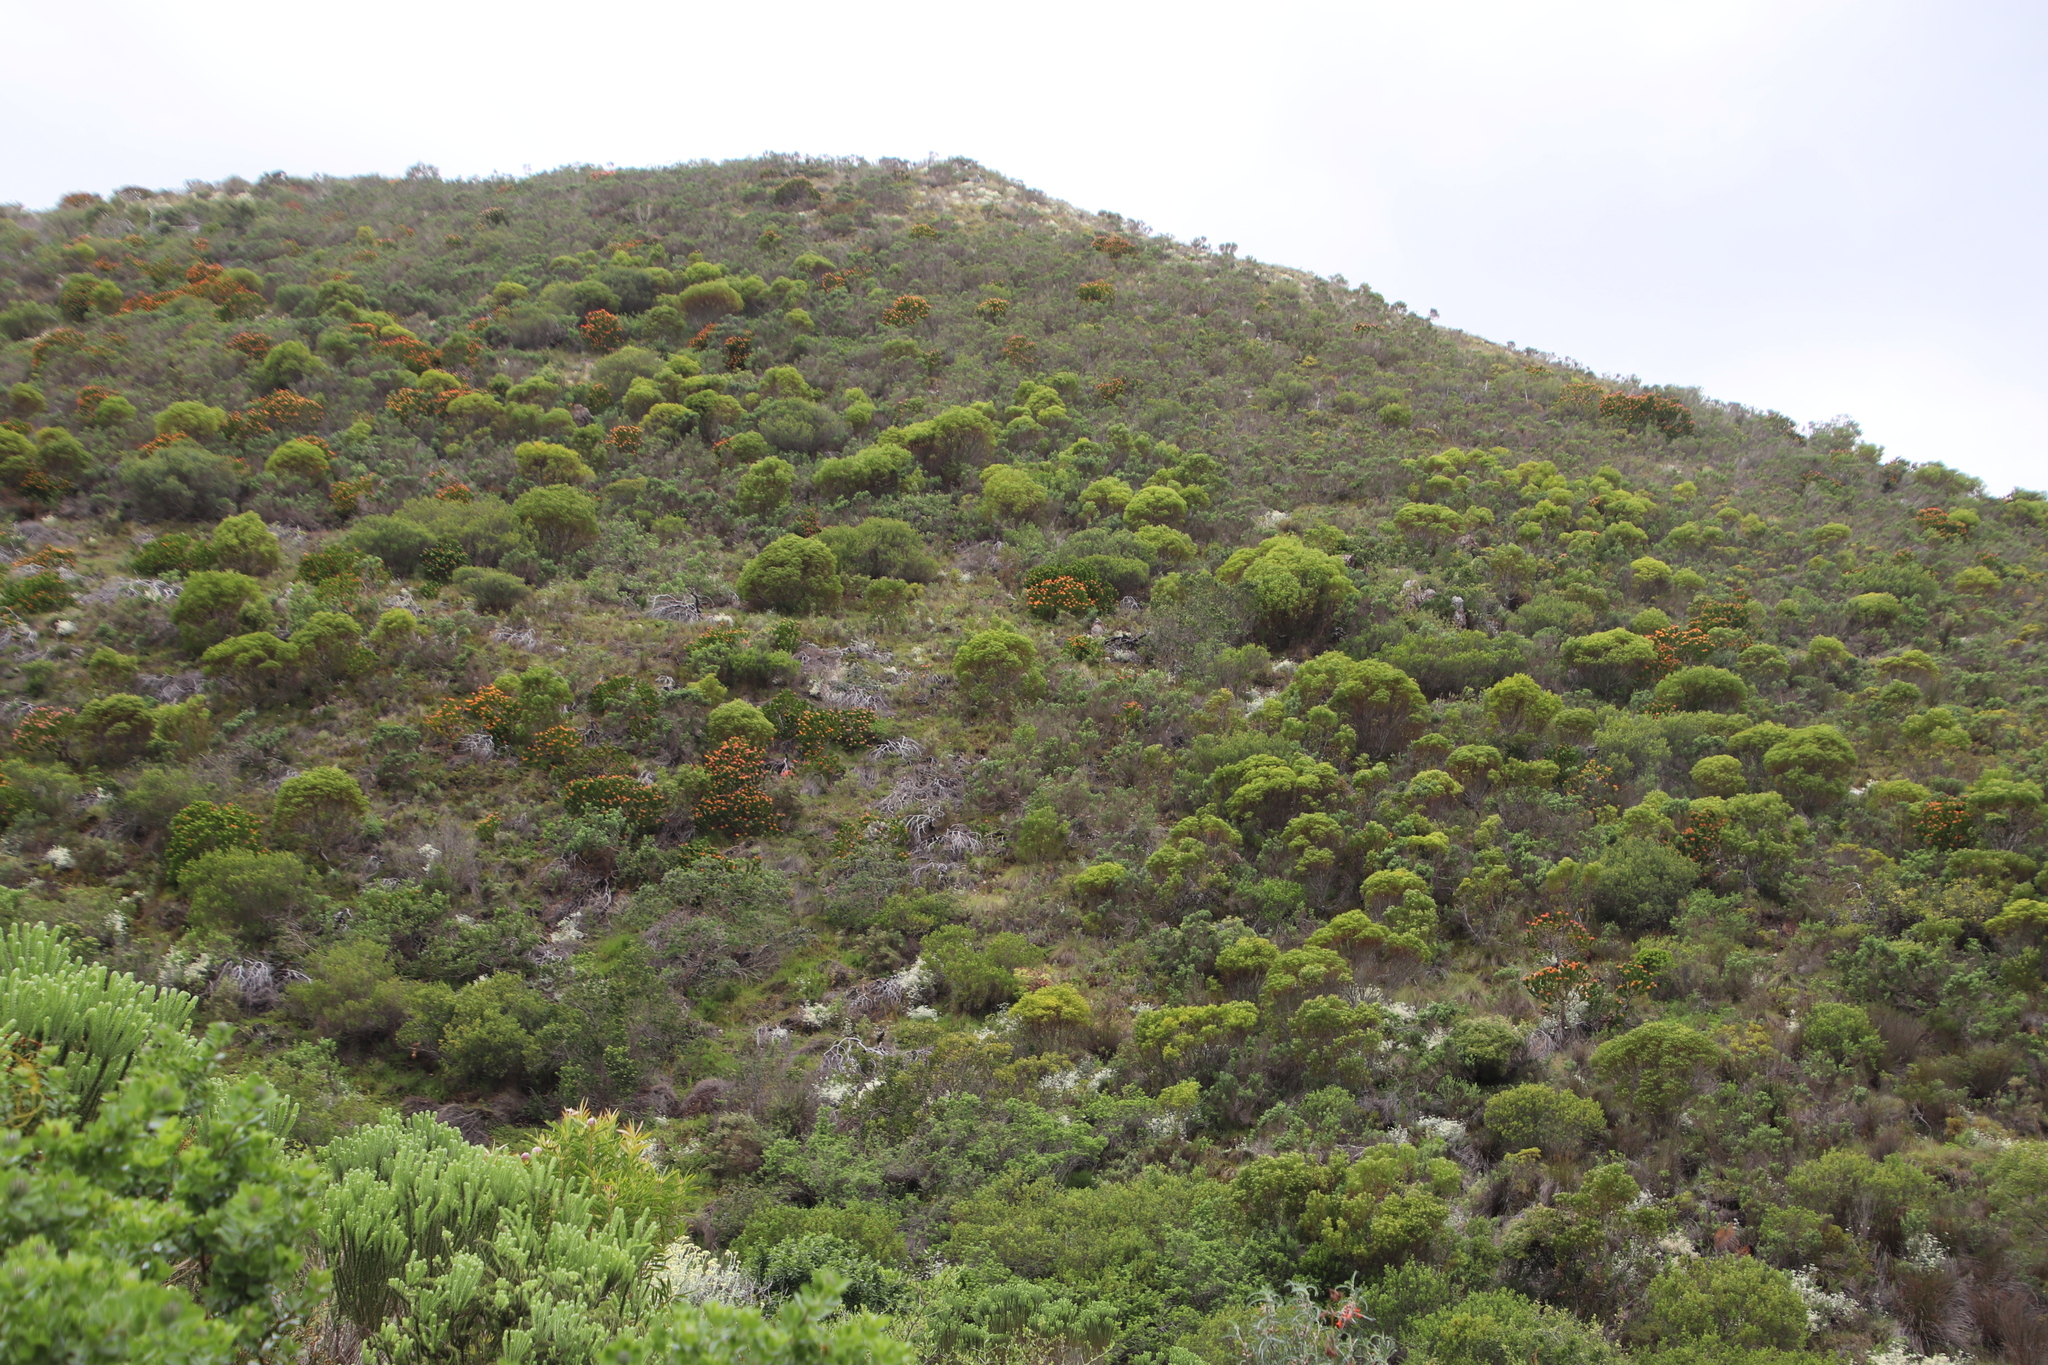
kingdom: Plantae
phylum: Tracheophyta
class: Magnoliopsida
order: Proteales
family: Proteaceae
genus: Leucadendron
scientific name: Leucadendron coniferum
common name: Dune conebush
